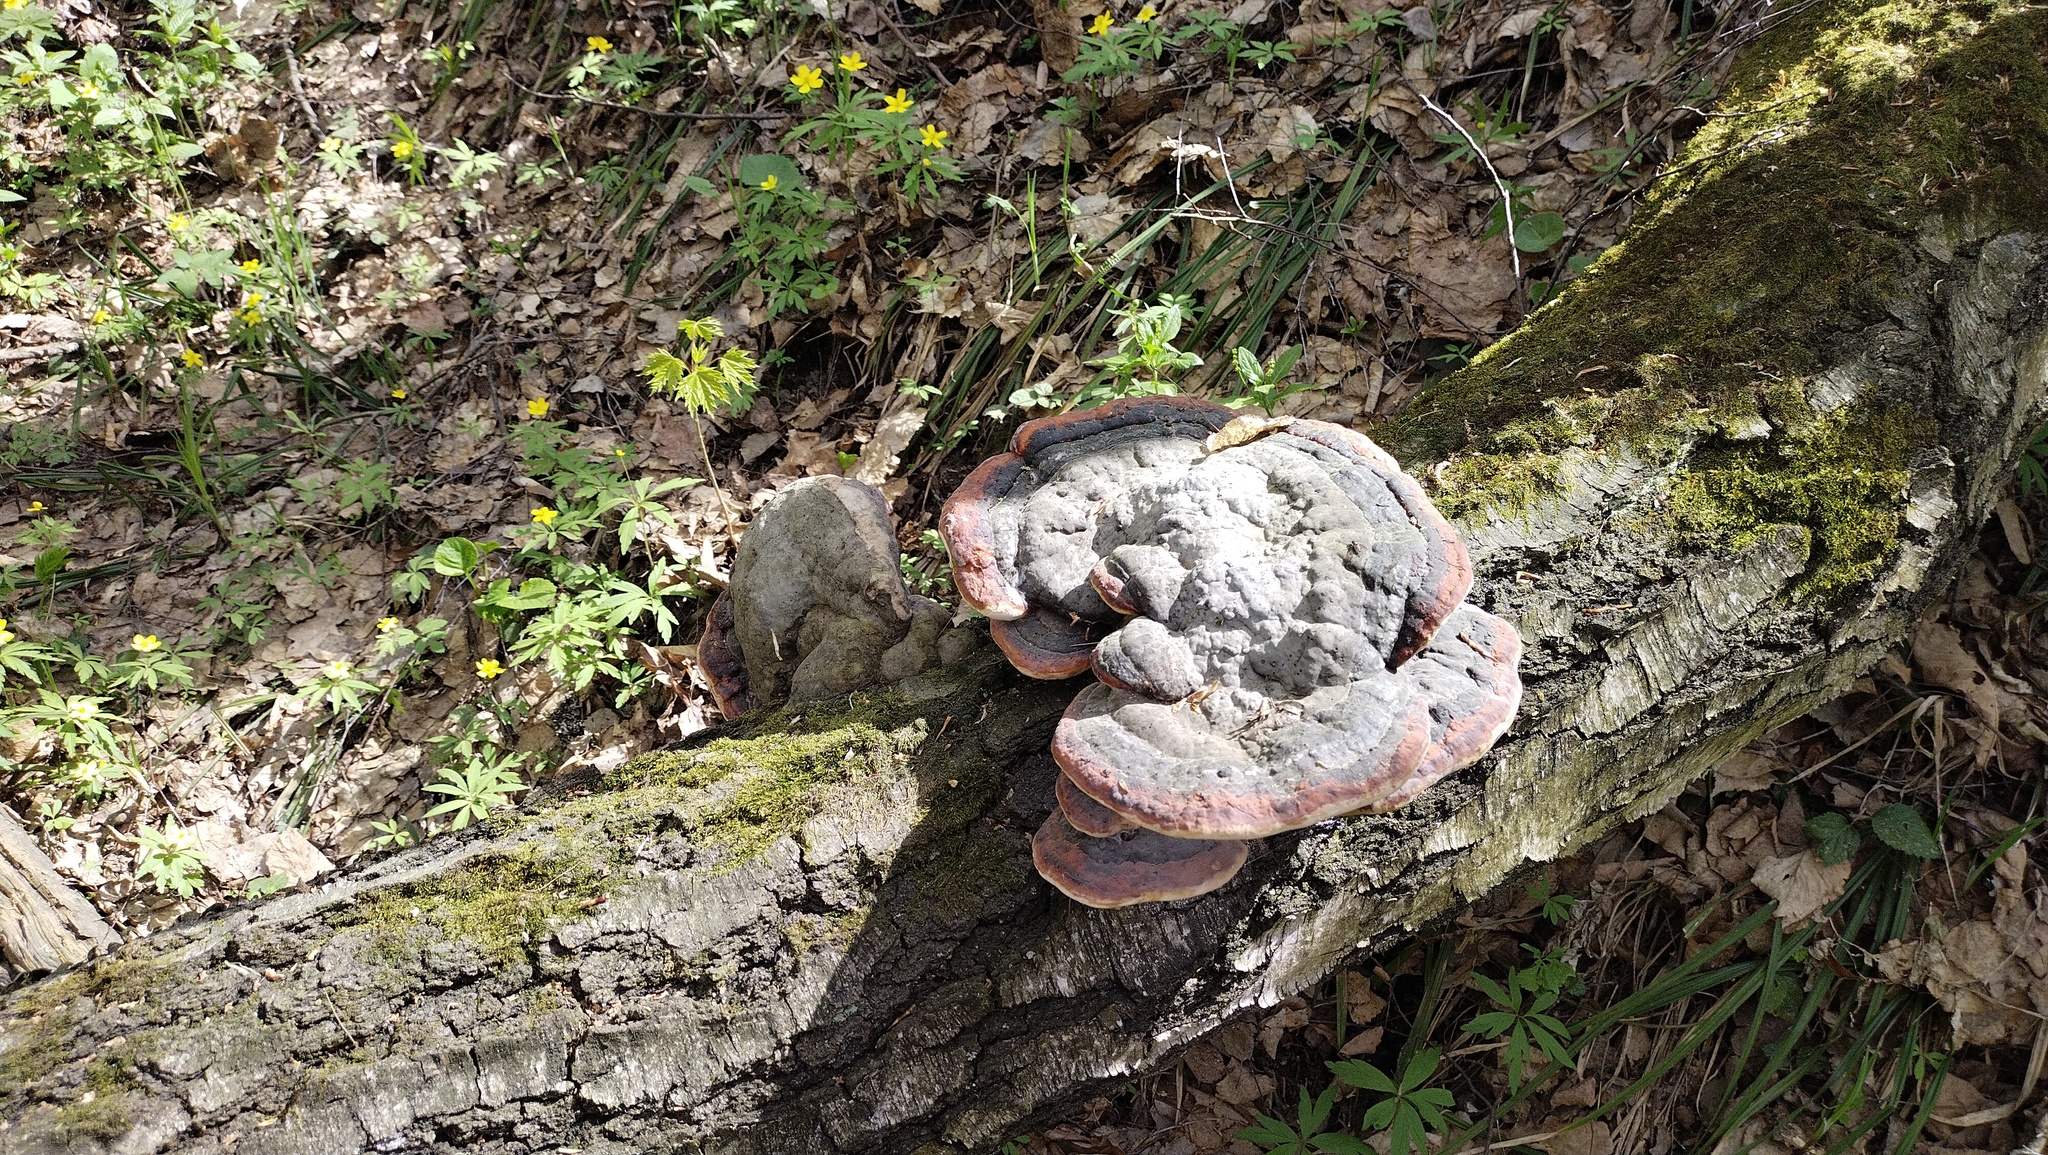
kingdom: Fungi
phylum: Basidiomycota
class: Agaricomycetes
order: Polyporales
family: Fomitopsidaceae
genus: Fomitopsis
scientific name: Fomitopsis pinicola
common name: Red-belted bracket
